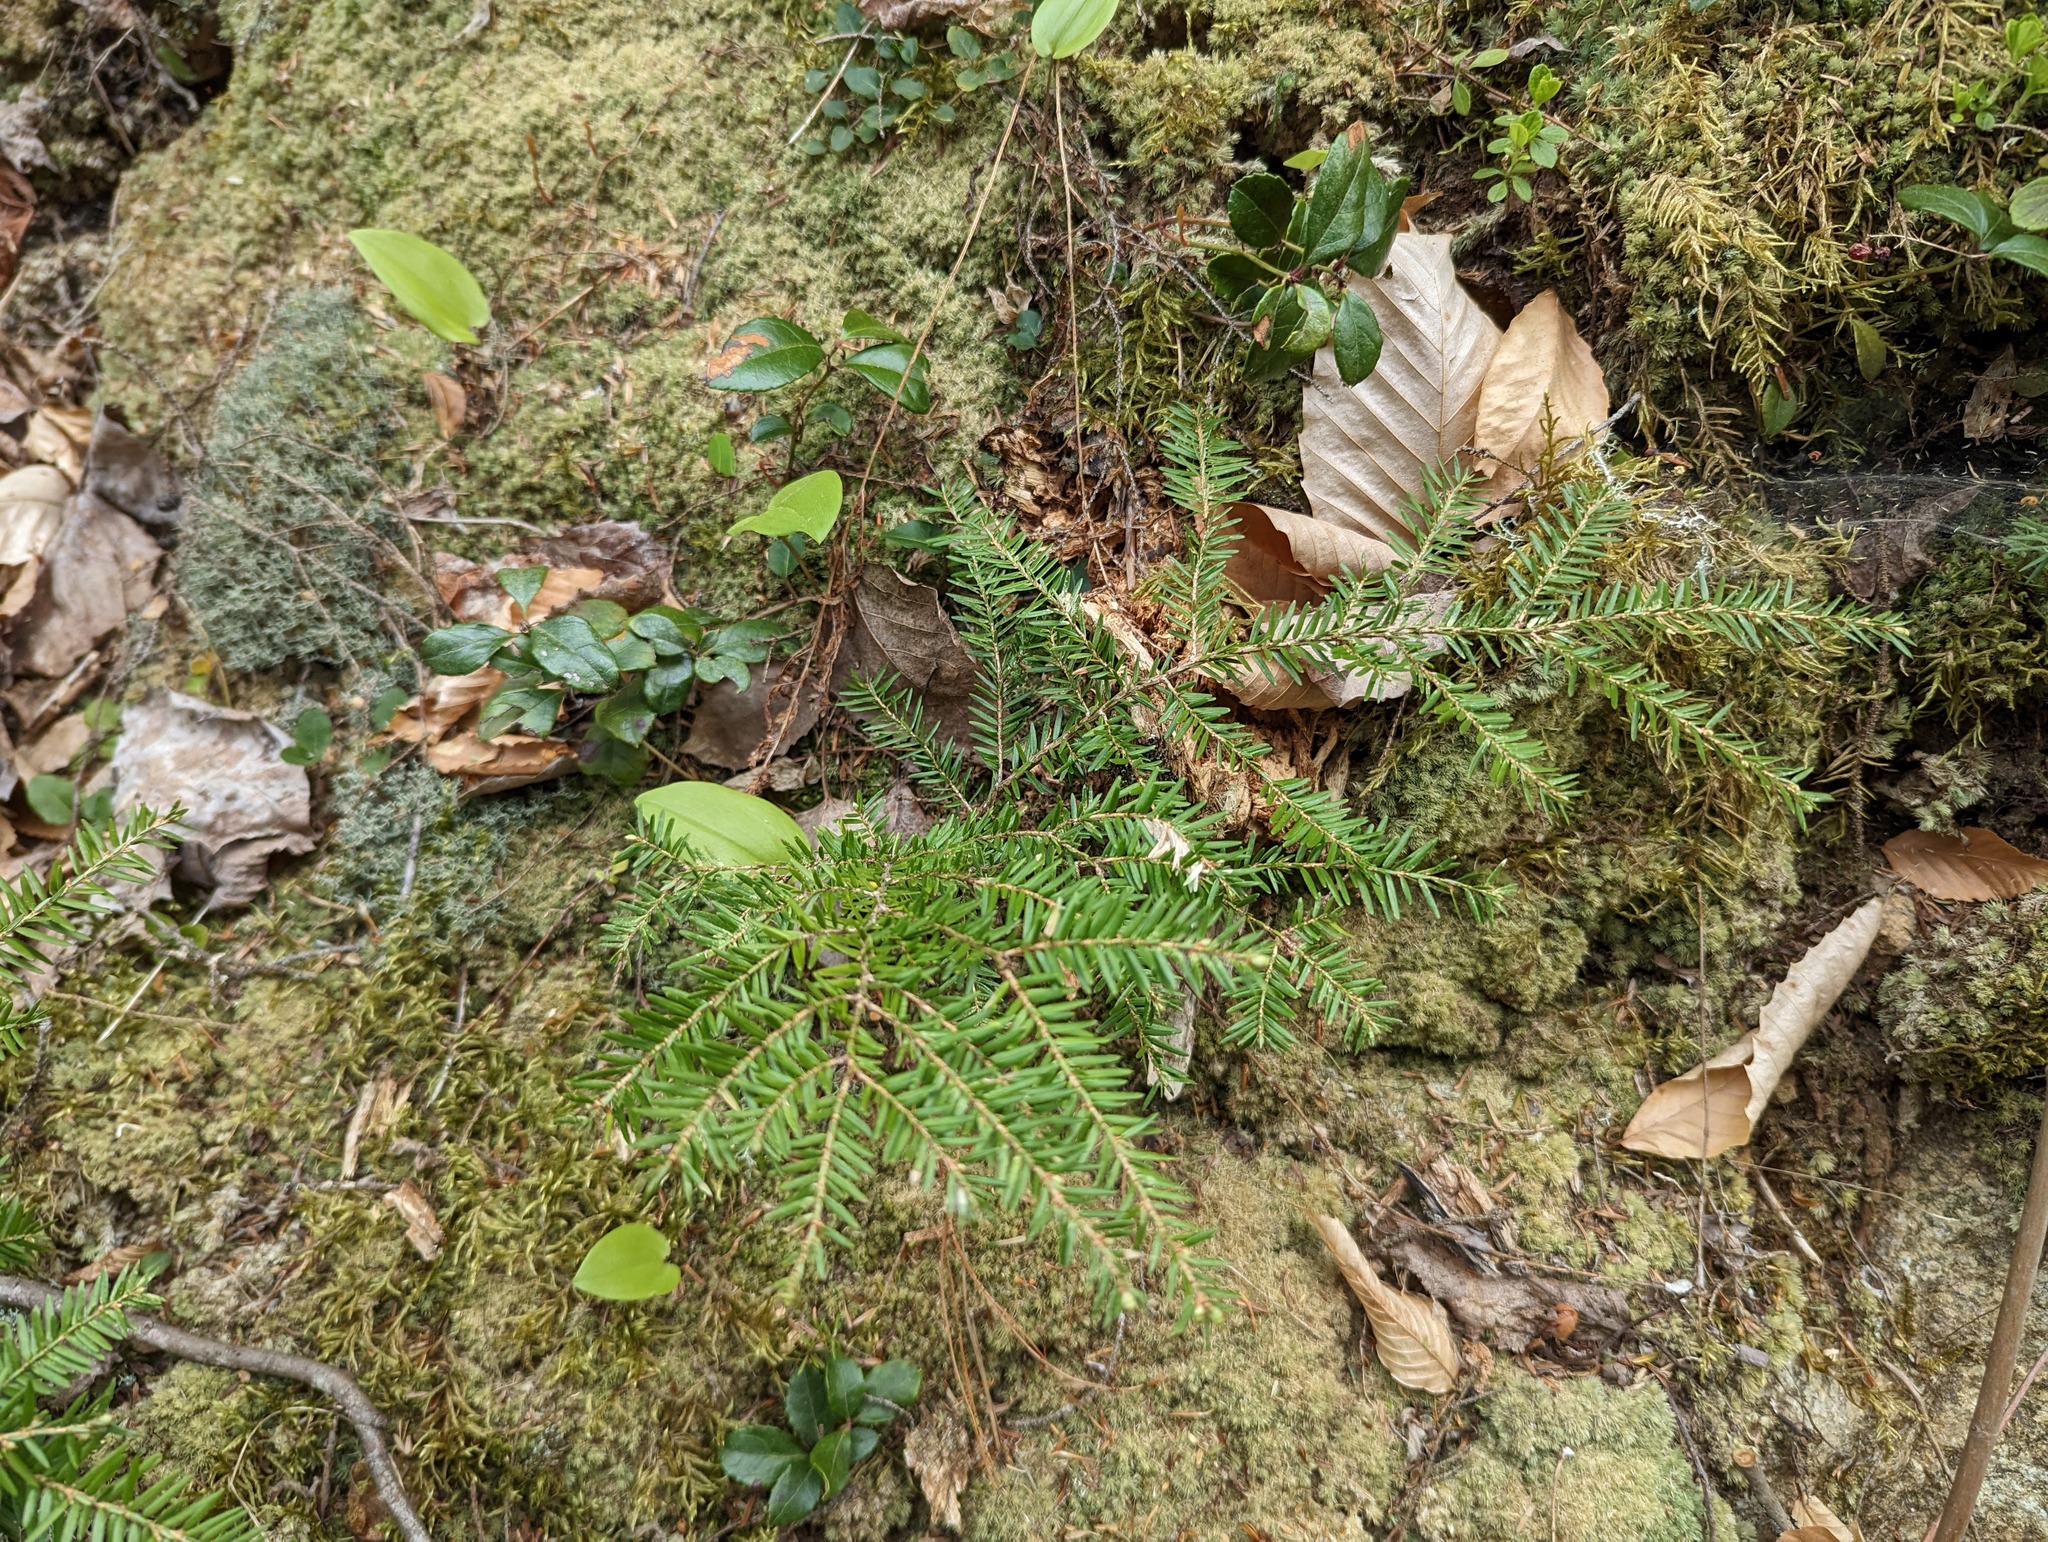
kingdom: Plantae
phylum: Tracheophyta
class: Pinopsida
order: Pinales
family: Pinaceae
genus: Tsuga
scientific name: Tsuga canadensis
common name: Eastern hemlock
